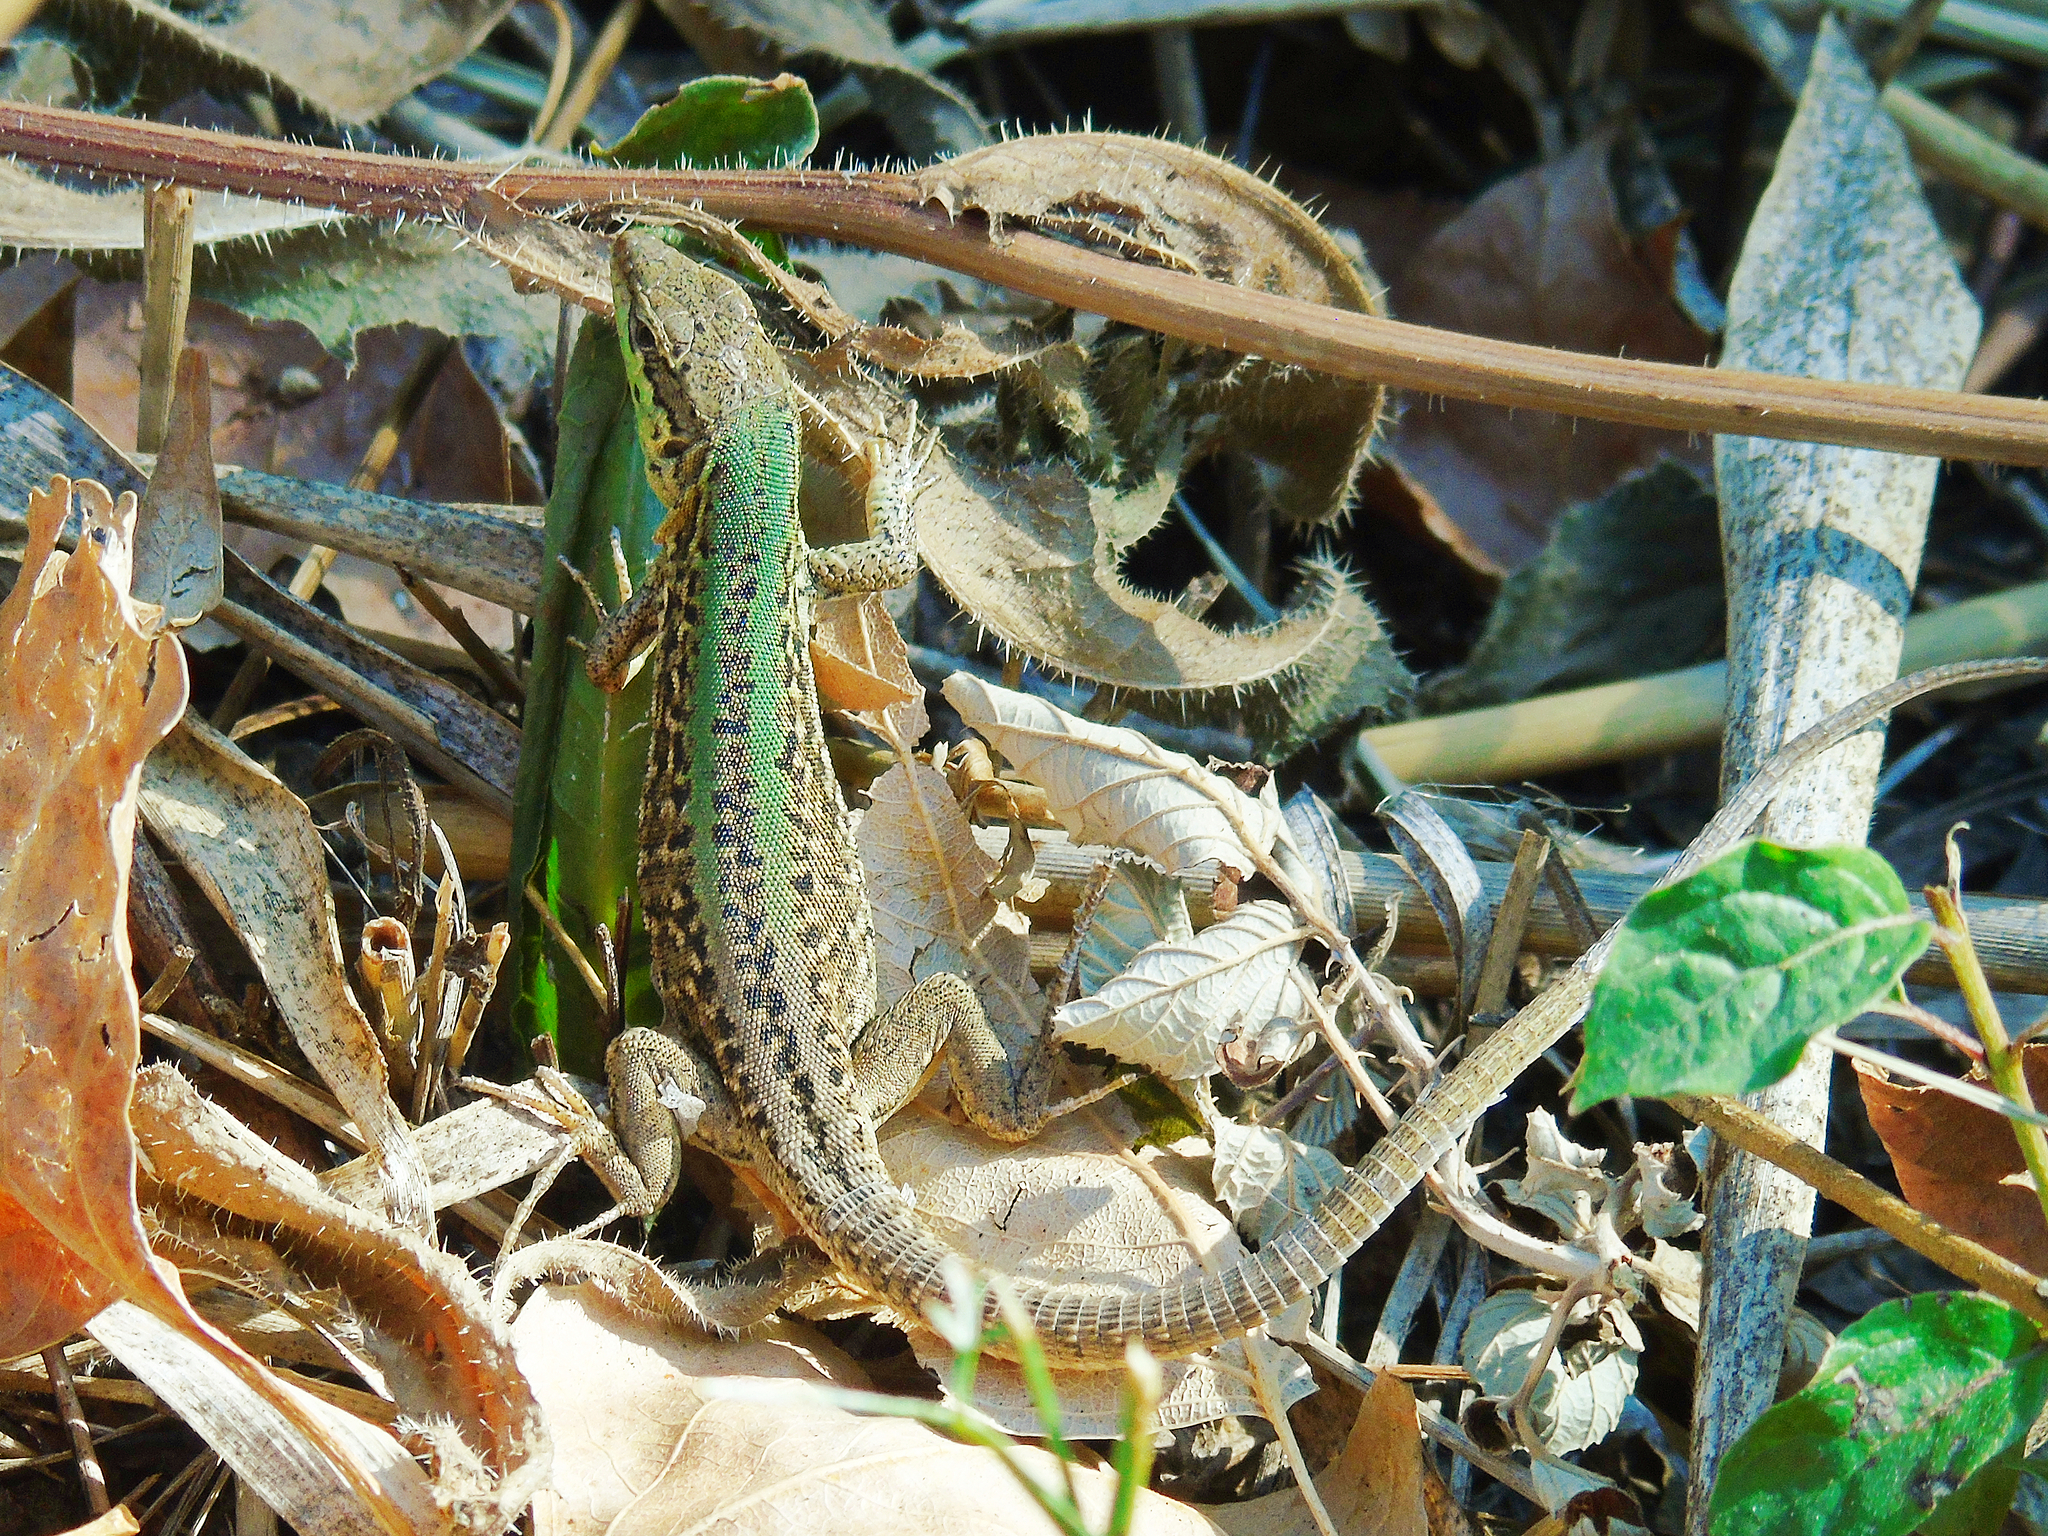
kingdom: Animalia
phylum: Chordata
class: Squamata
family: Lacertidae
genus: Podarcis
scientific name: Podarcis siculus
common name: Italian wall lizard
